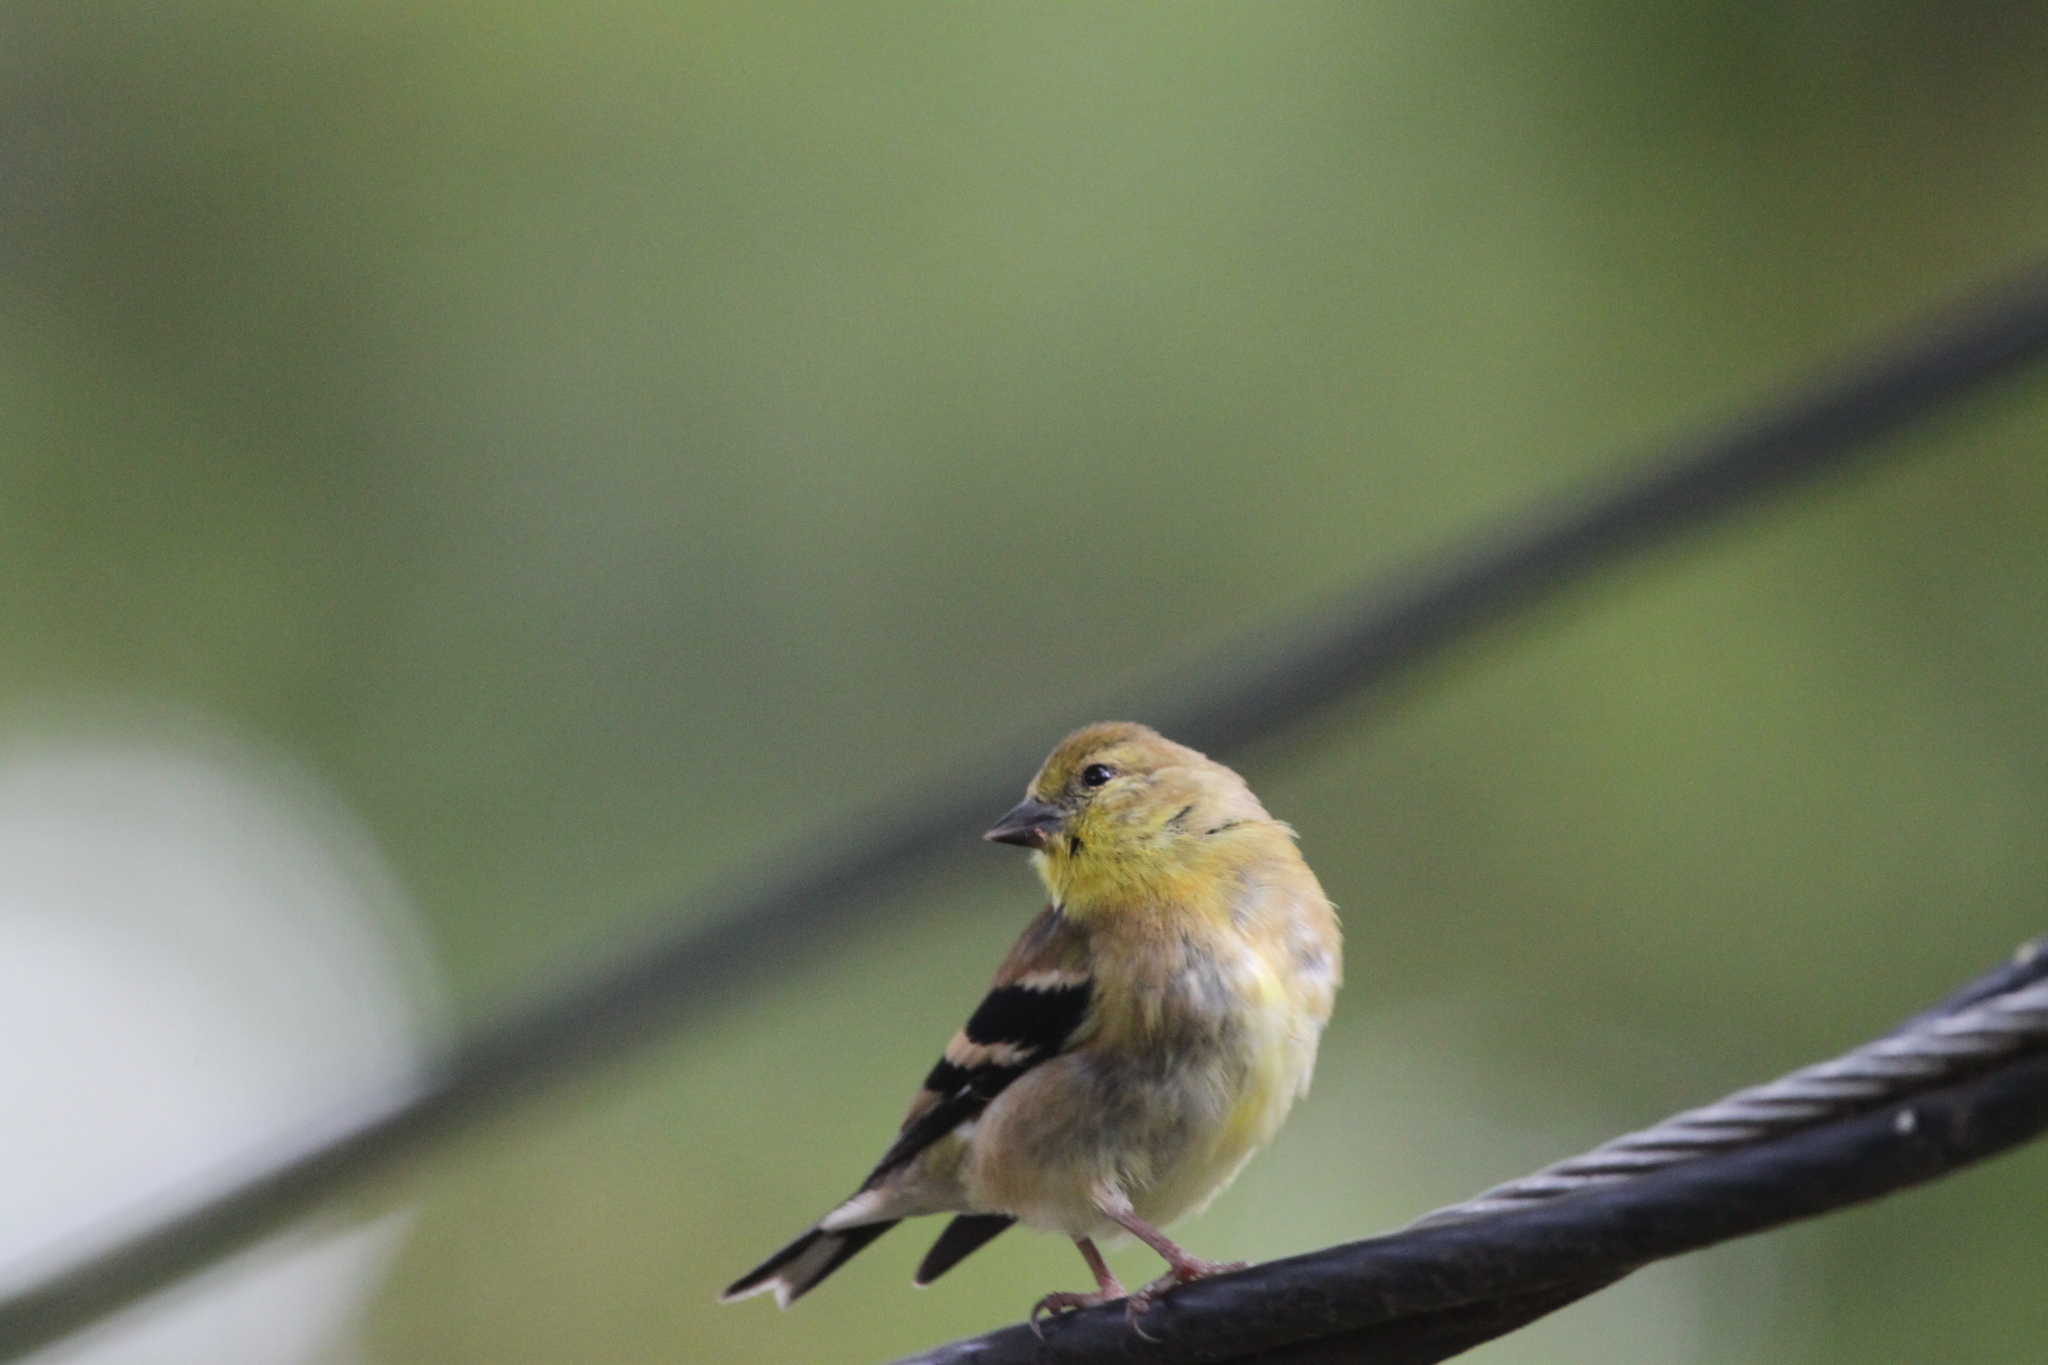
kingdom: Animalia
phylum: Chordata
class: Aves
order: Passeriformes
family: Fringillidae
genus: Spinus
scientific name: Spinus tristis
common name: American goldfinch
